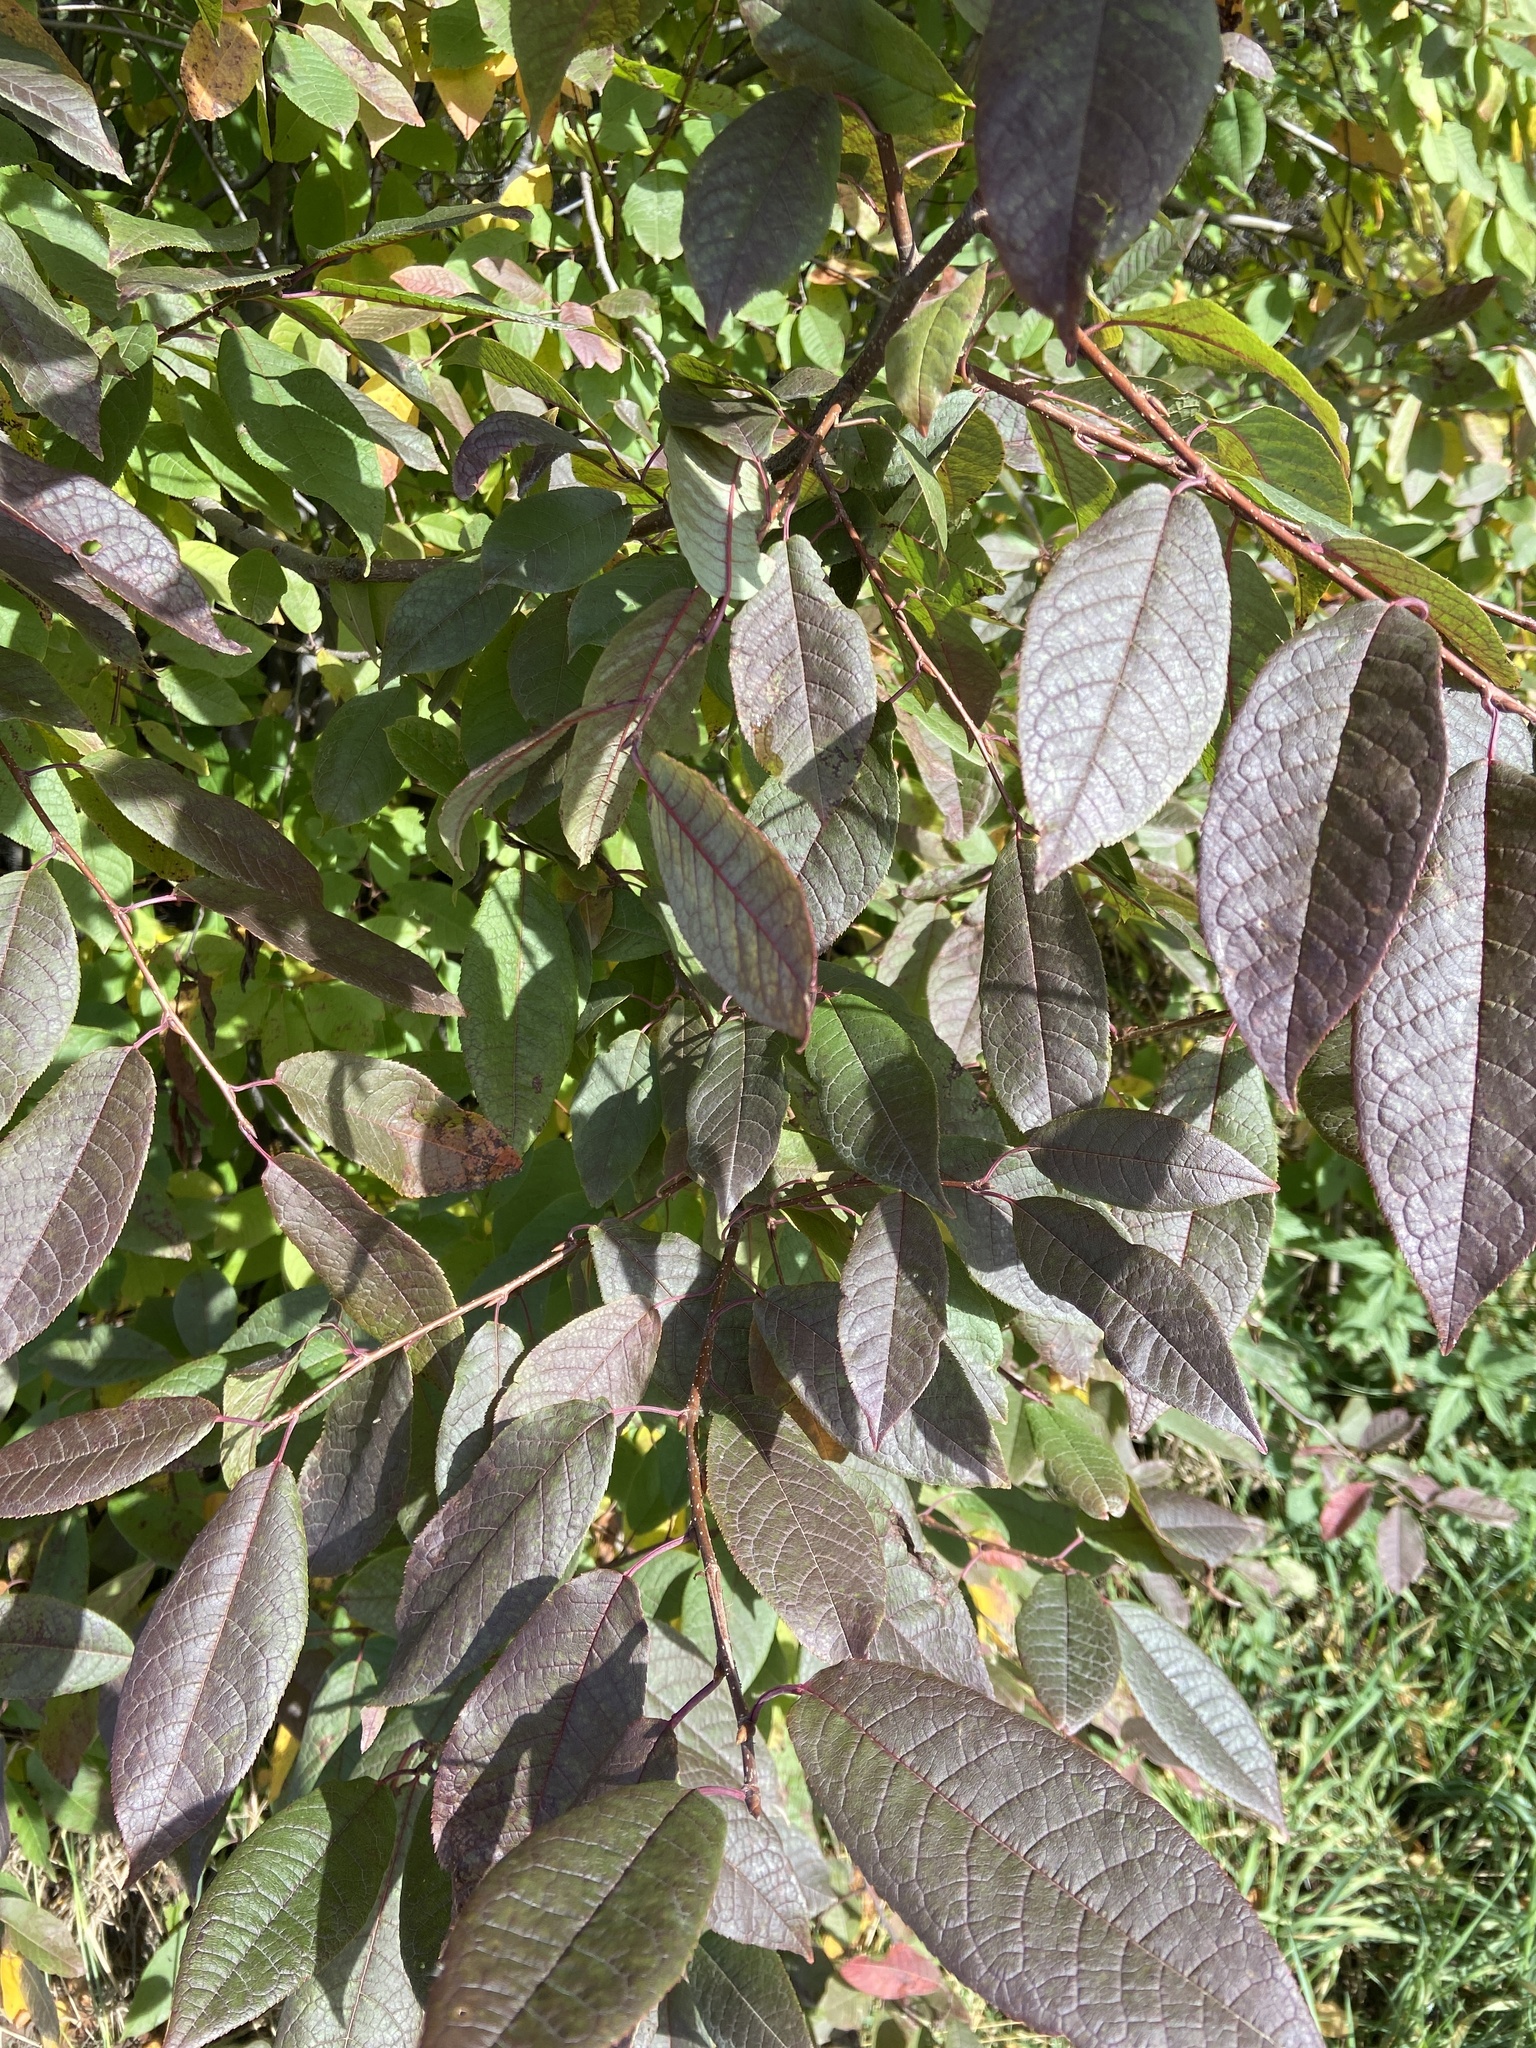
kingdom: Plantae
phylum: Tracheophyta
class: Magnoliopsida
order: Rosales
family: Rosaceae
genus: Prunus
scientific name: Prunus padus
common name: Bird cherry
